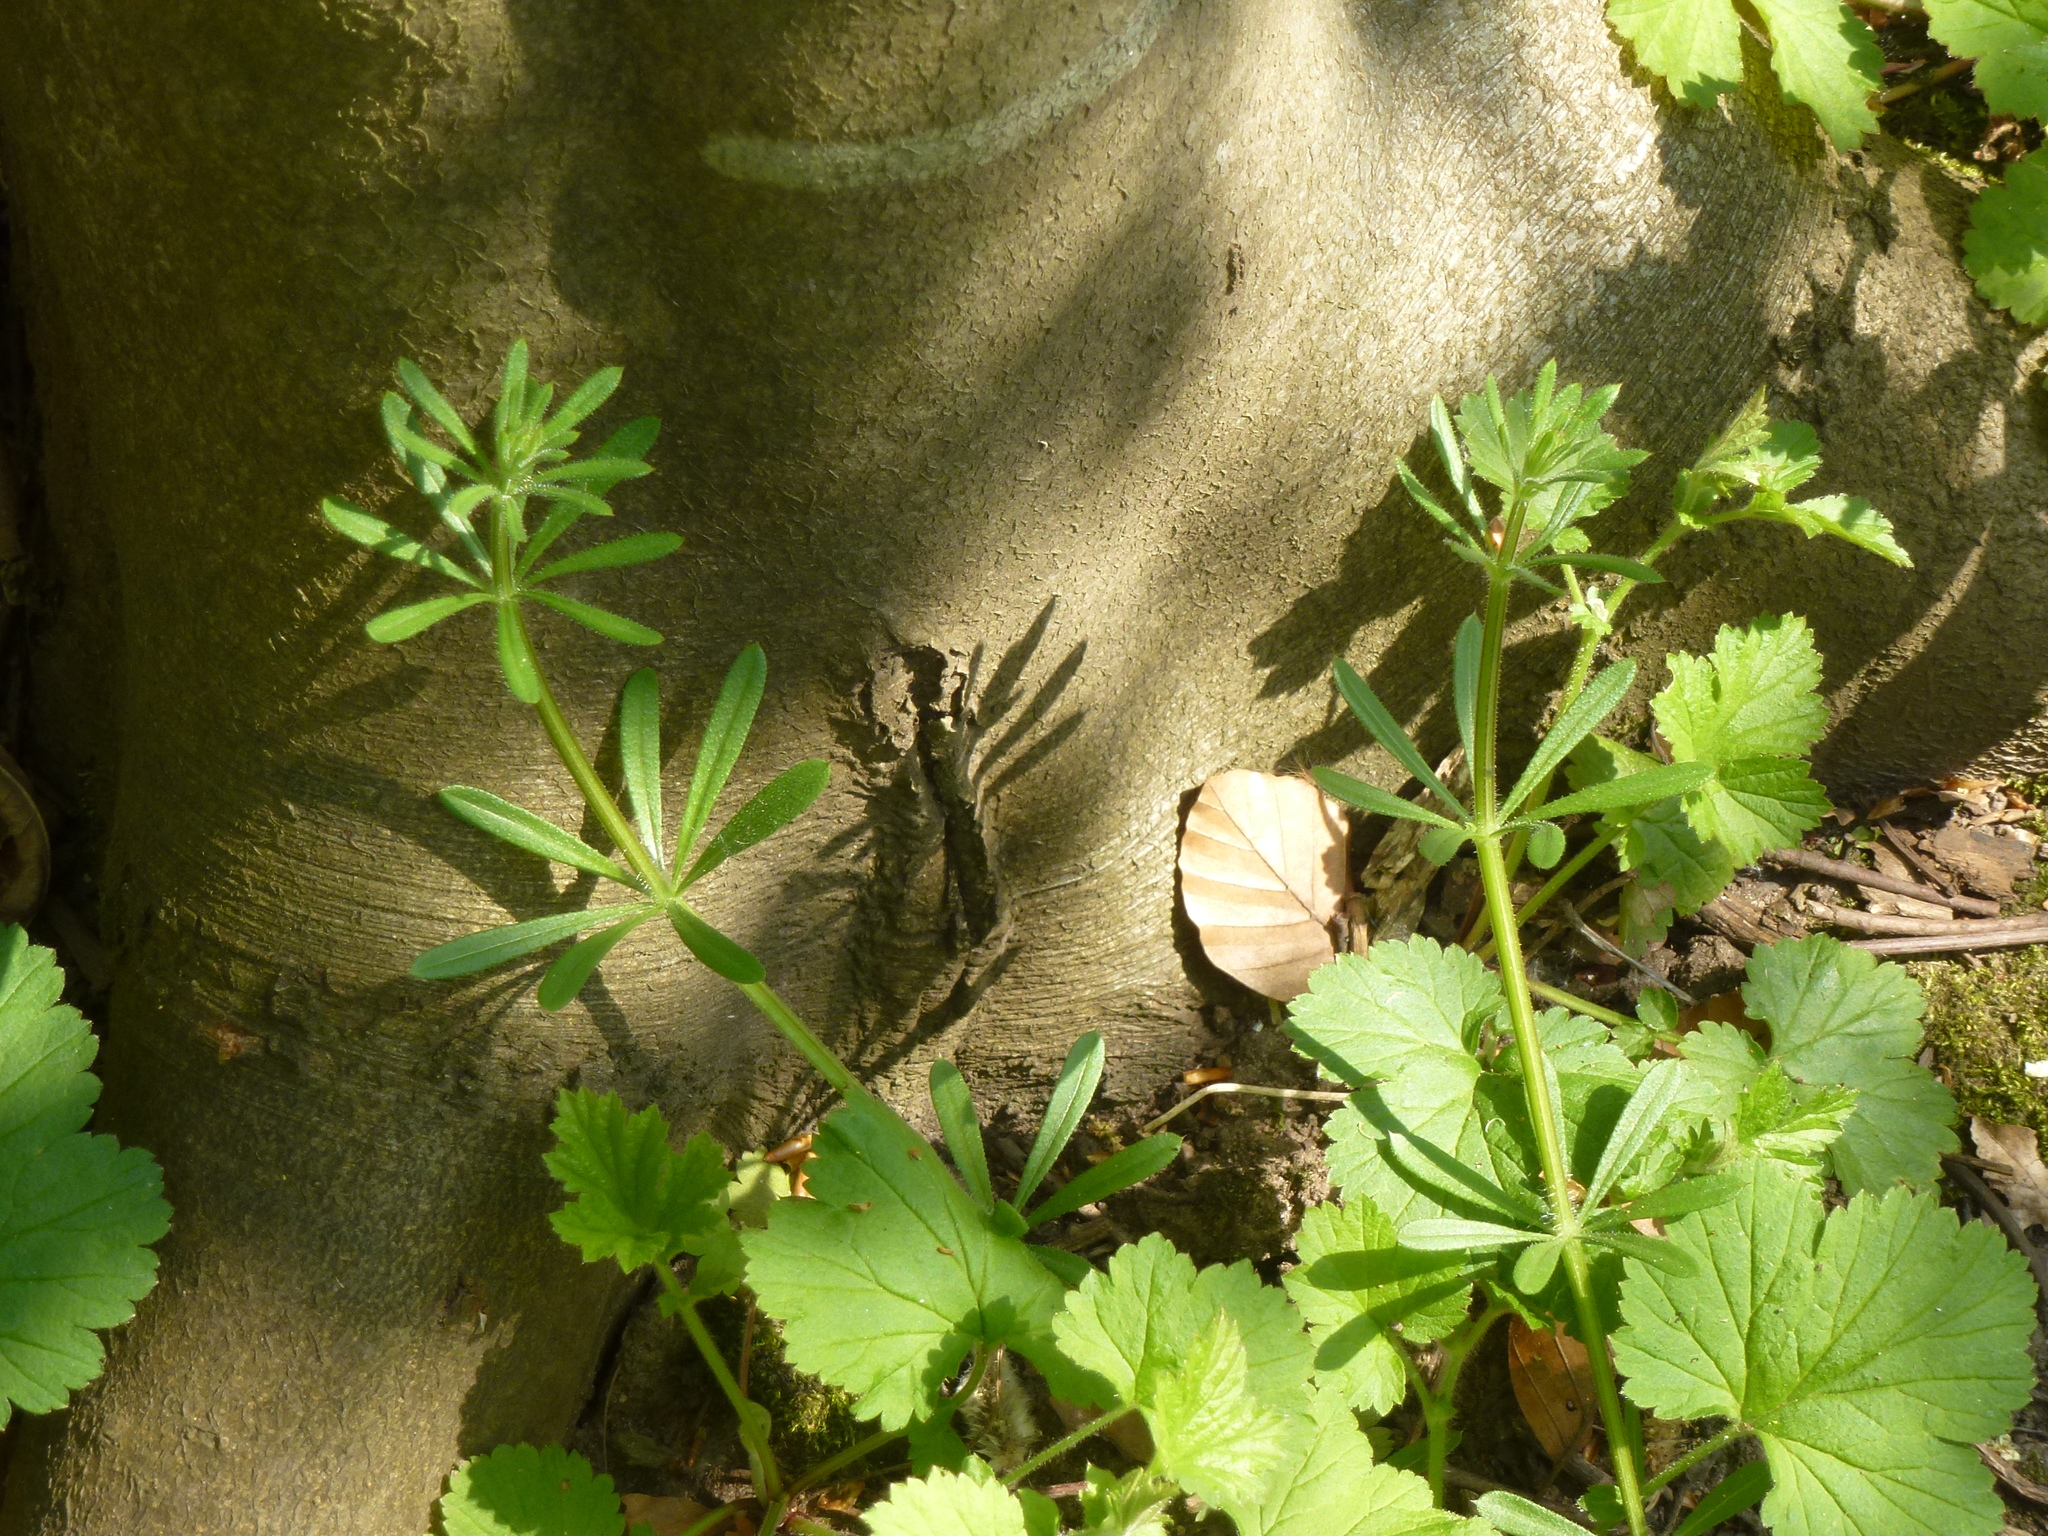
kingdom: Plantae
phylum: Tracheophyta
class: Magnoliopsida
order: Gentianales
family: Rubiaceae
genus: Galium
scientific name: Galium aparine
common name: Cleavers
